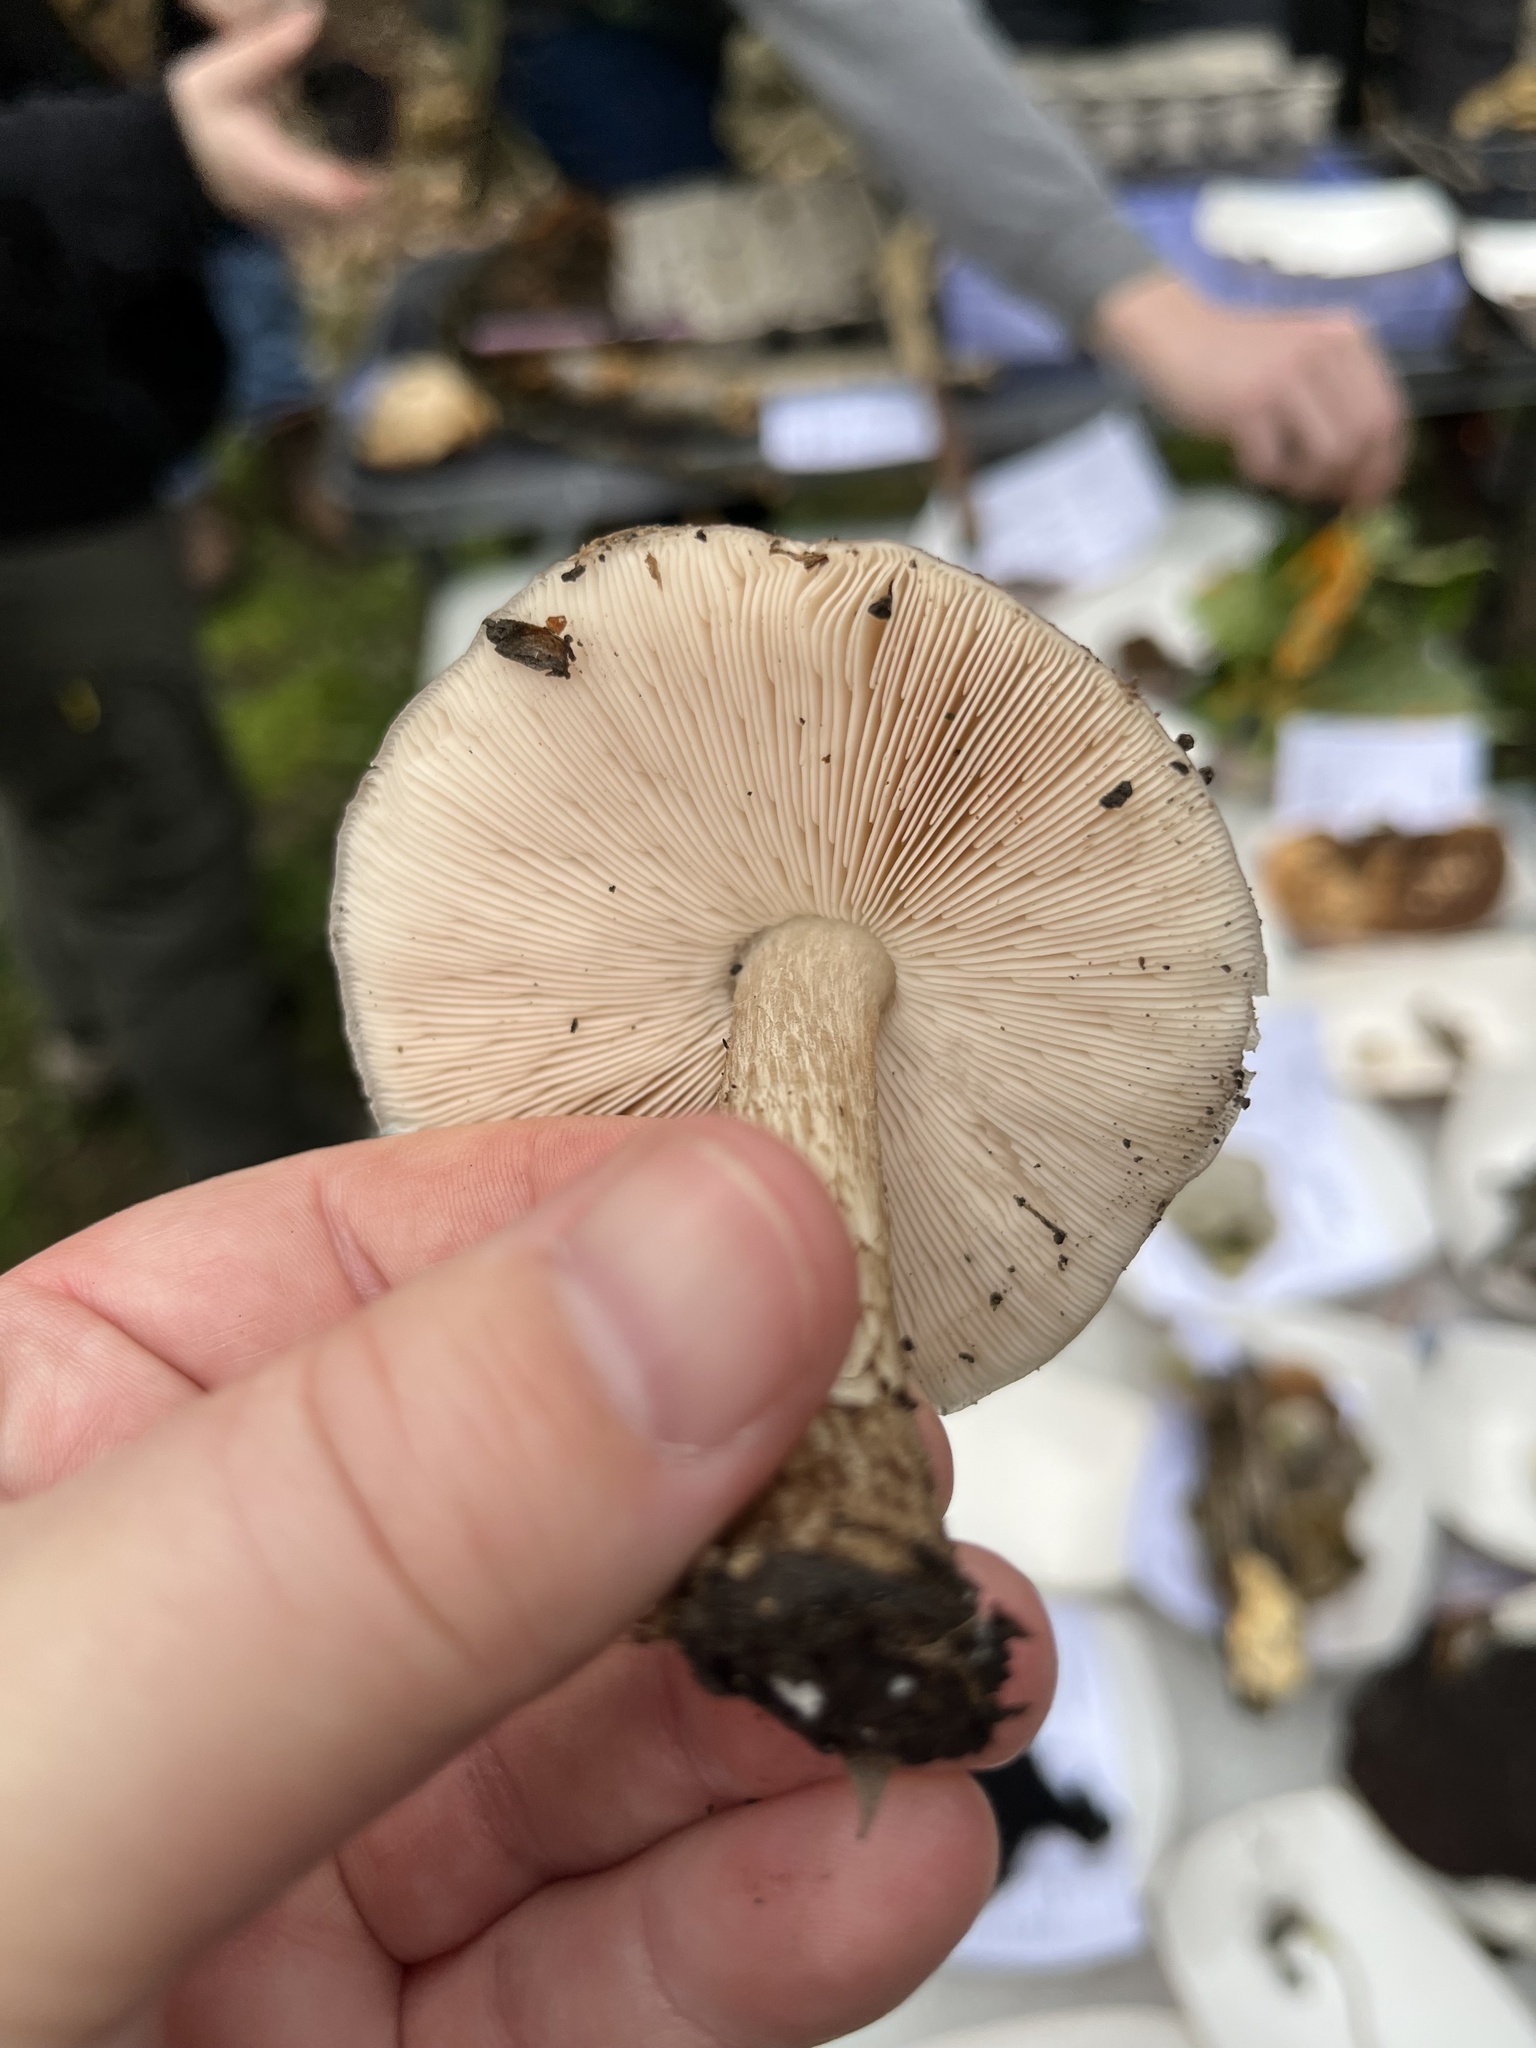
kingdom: Fungi
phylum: Basidiomycota
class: Agaricomycetes
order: Agaricales
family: Pluteaceae
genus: Pluteus
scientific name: Pluteus cervinus
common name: Deer shield
